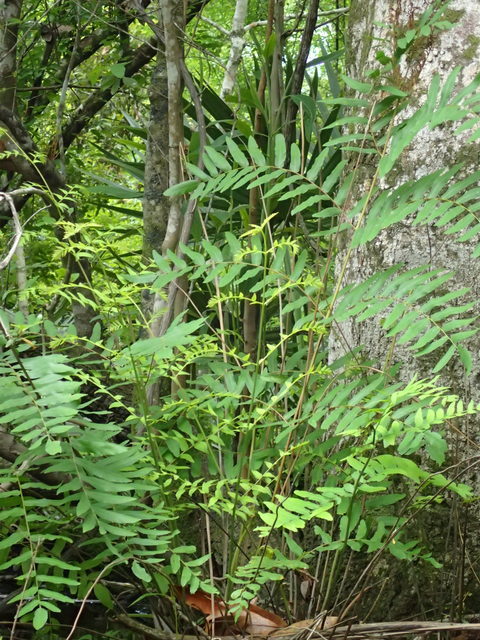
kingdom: Plantae
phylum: Tracheophyta
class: Polypodiopsida
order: Osmundales
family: Osmundaceae
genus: Osmunda
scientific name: Osmunda spectabilis
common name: American royal fern
